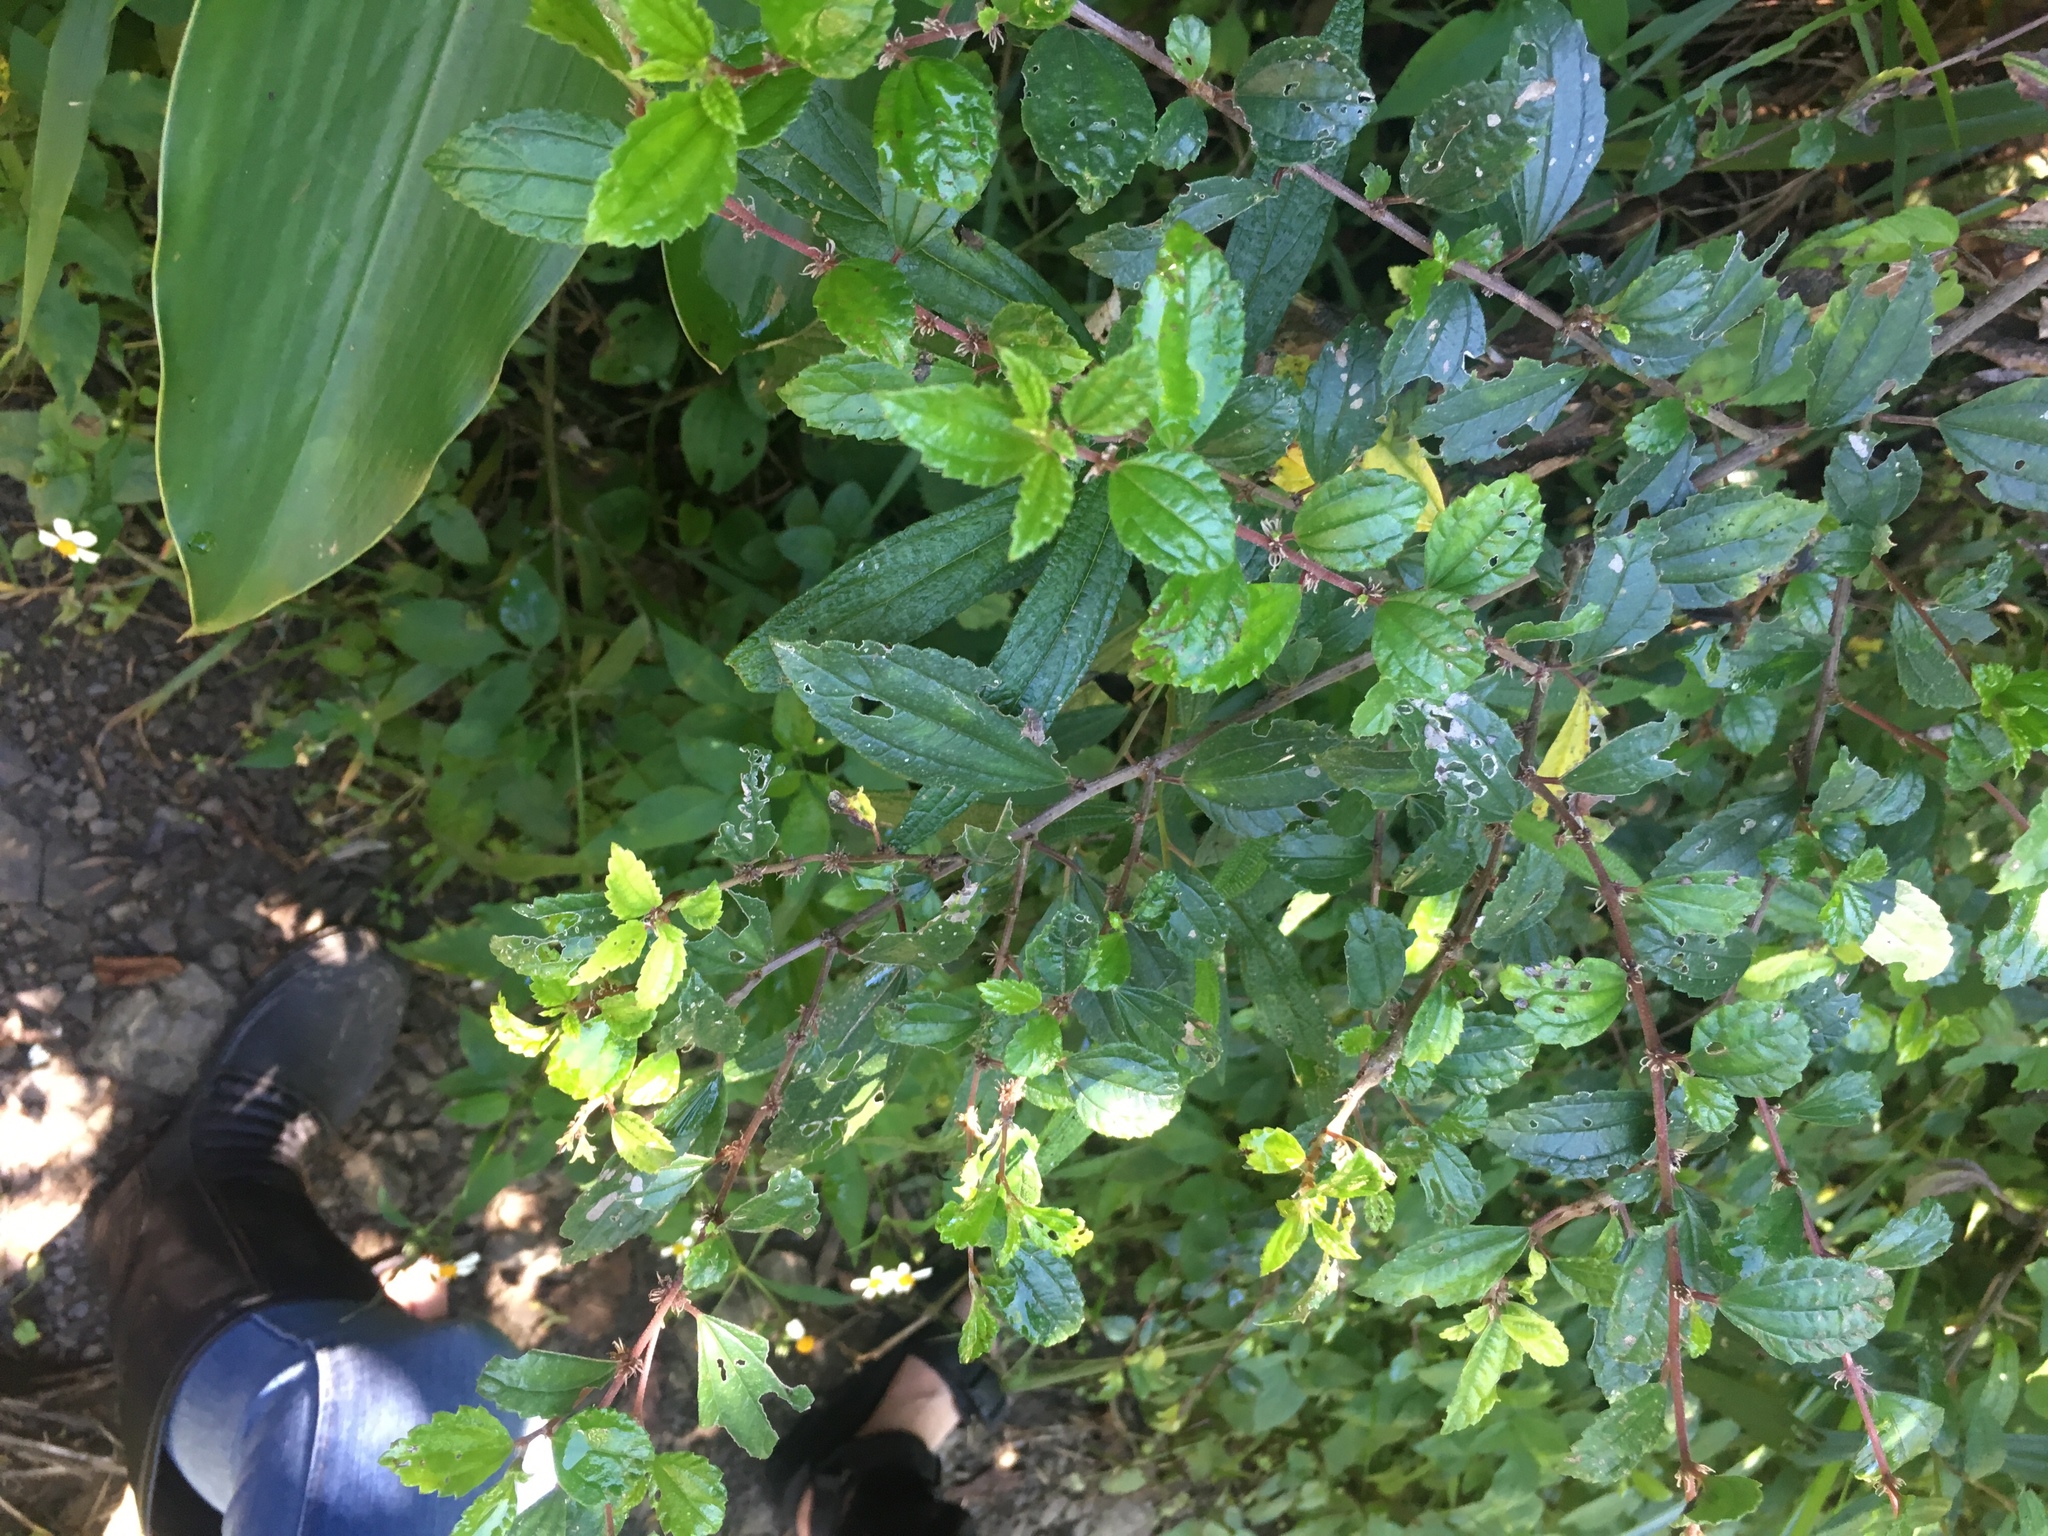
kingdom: Plantae
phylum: Tracheophyta
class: Magnoliopsida
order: Rosales
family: Urticaceae
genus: Pouzolzia
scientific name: Pouzolzia sanguinea
